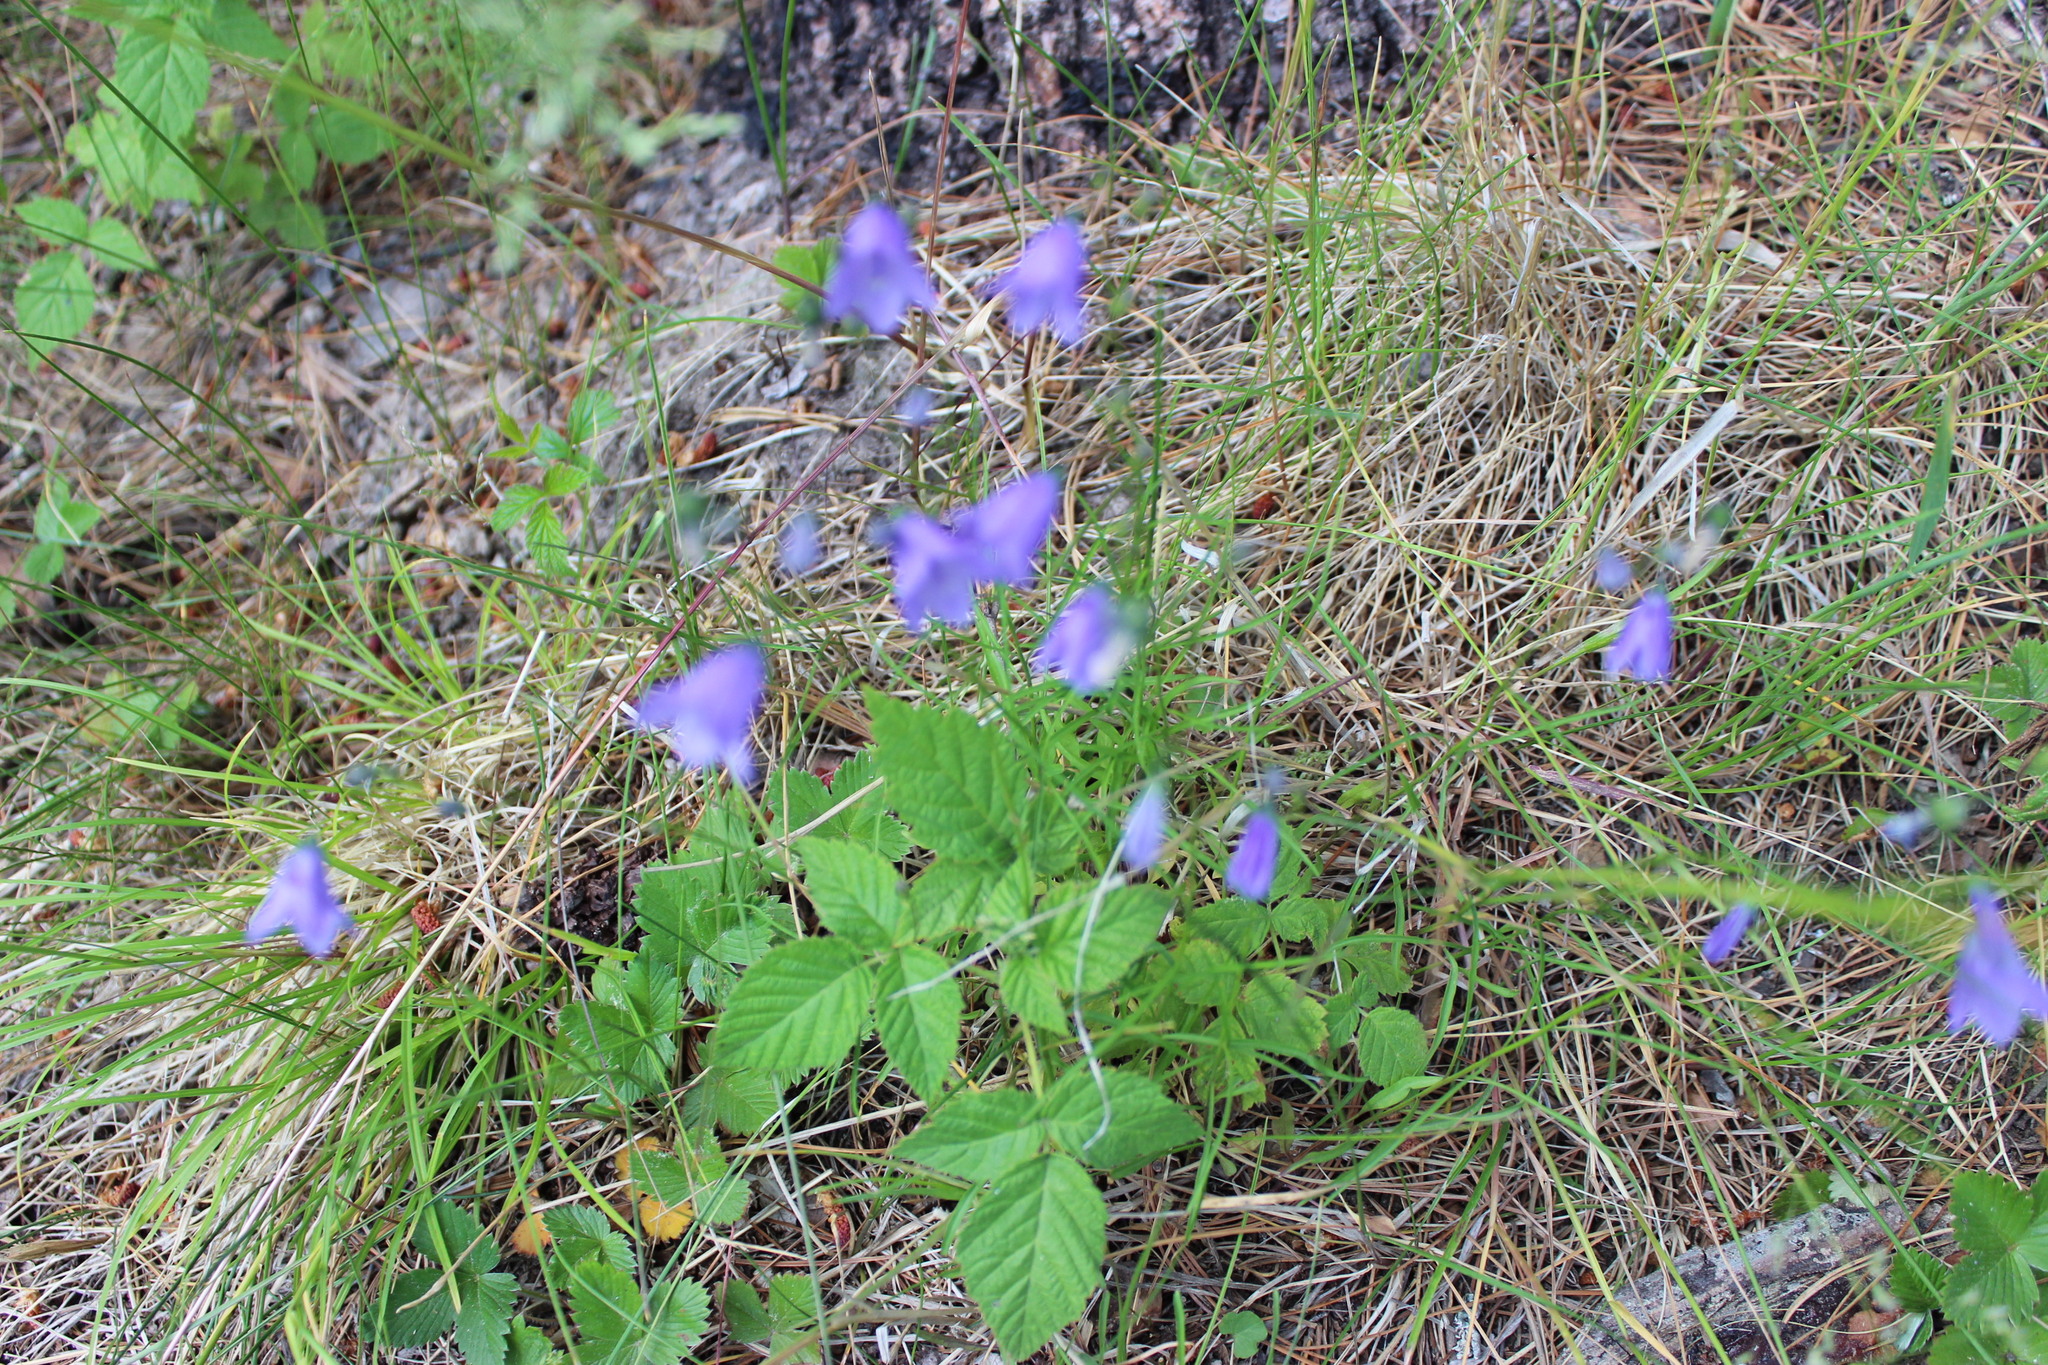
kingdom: Plantae
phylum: Tracheophyta
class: Magnoliopsida
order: Asterales
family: Campanulaceae
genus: Campanula
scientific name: Campanula rotundifolia
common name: Harebell
